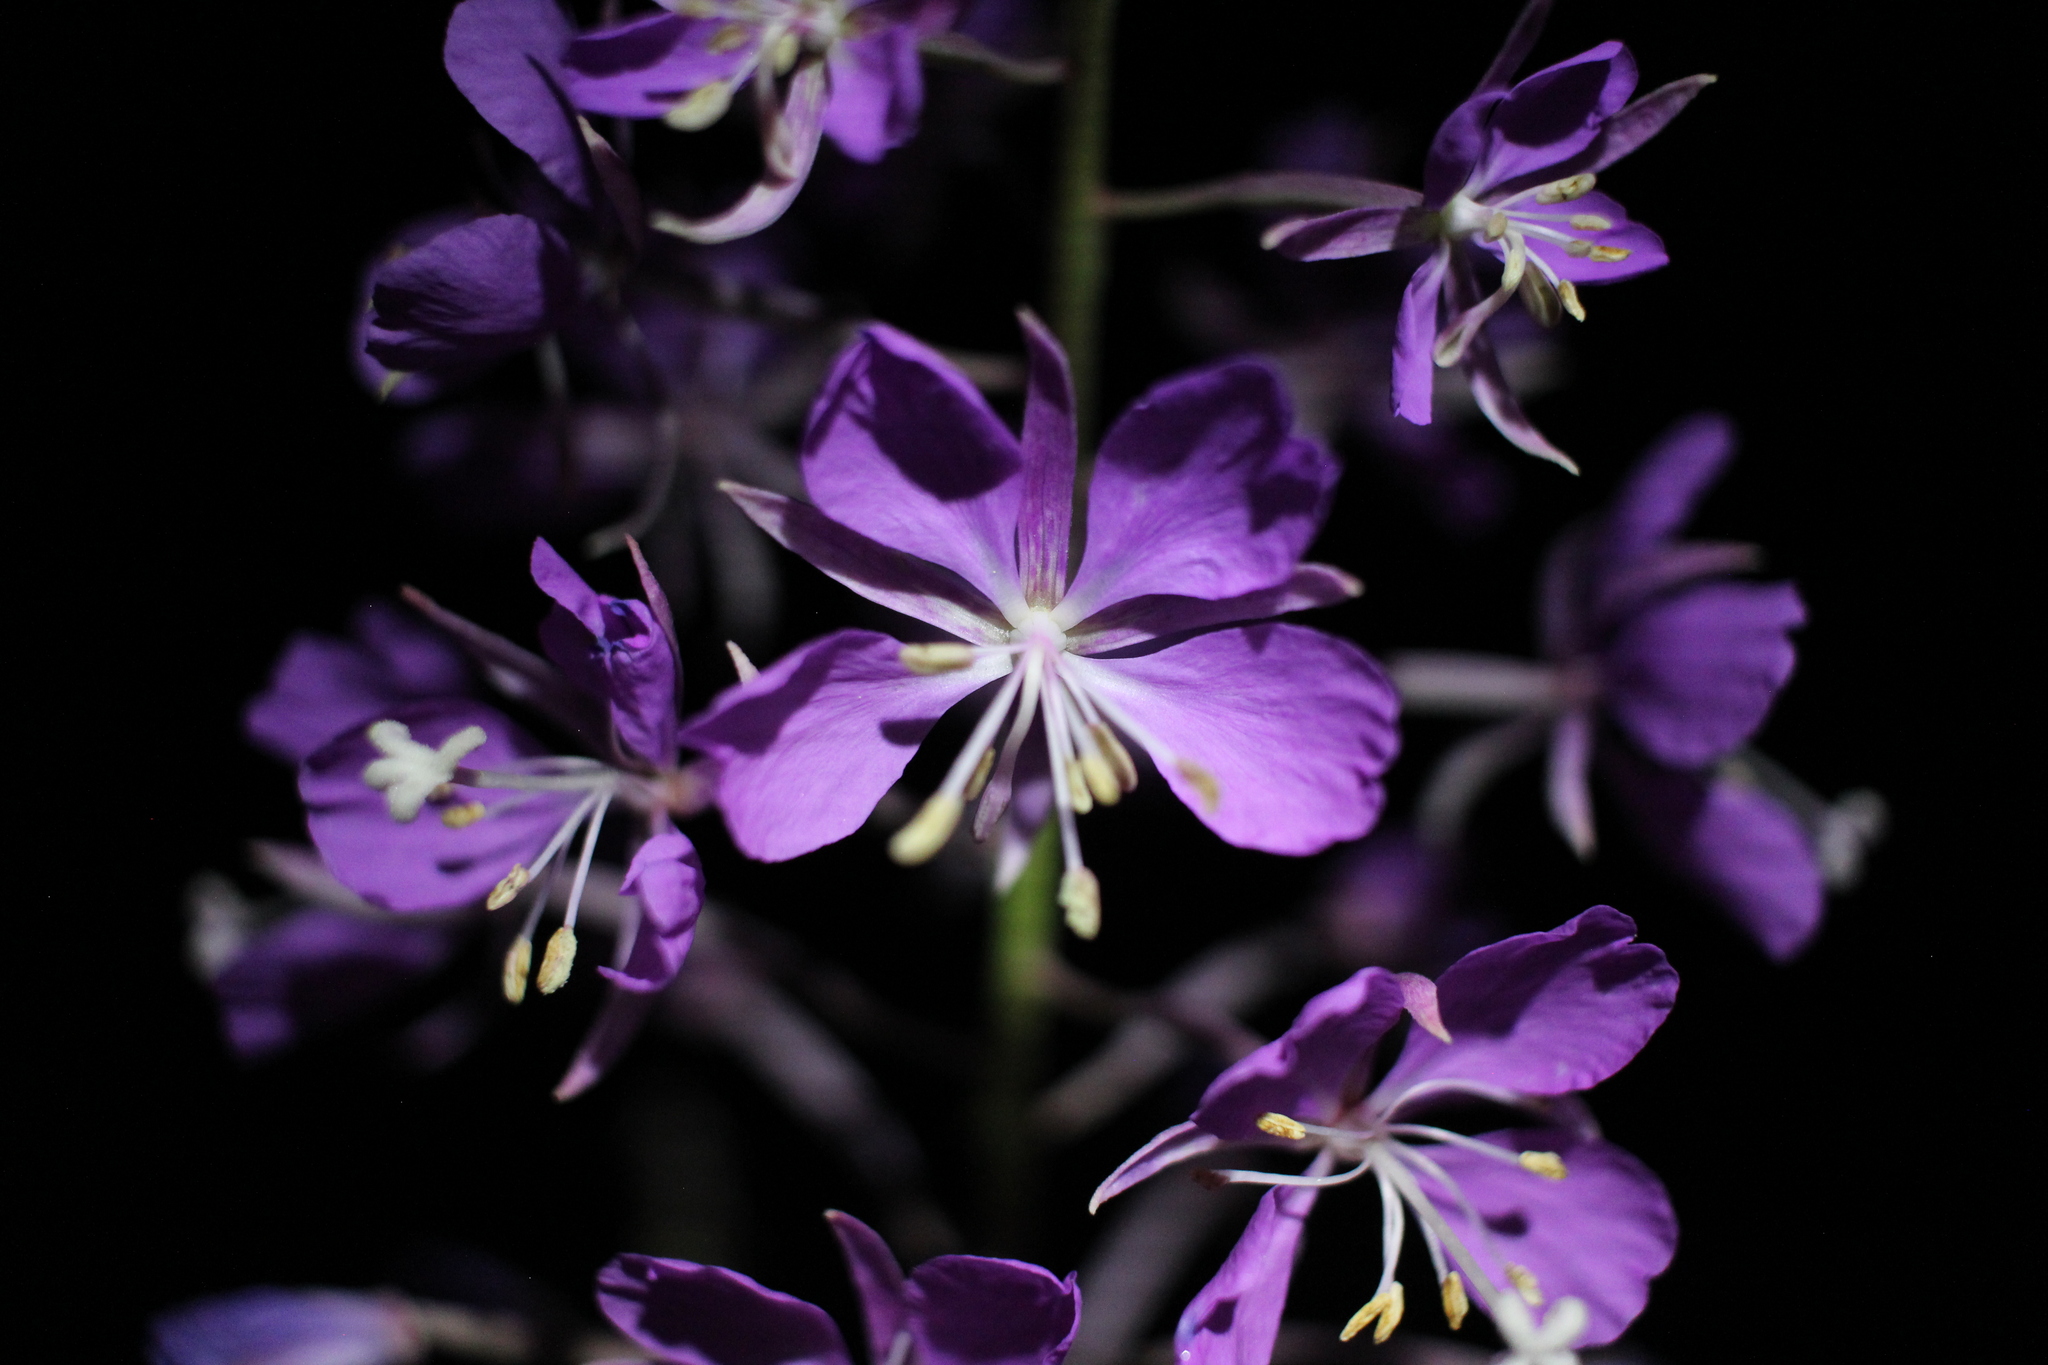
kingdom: Plantae
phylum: Tracheophyta
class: Magnoliopsida
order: Myrtales
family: Onagraceae
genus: Chamaenerion
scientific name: Chamaenerion angustifolium
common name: Fireweed
